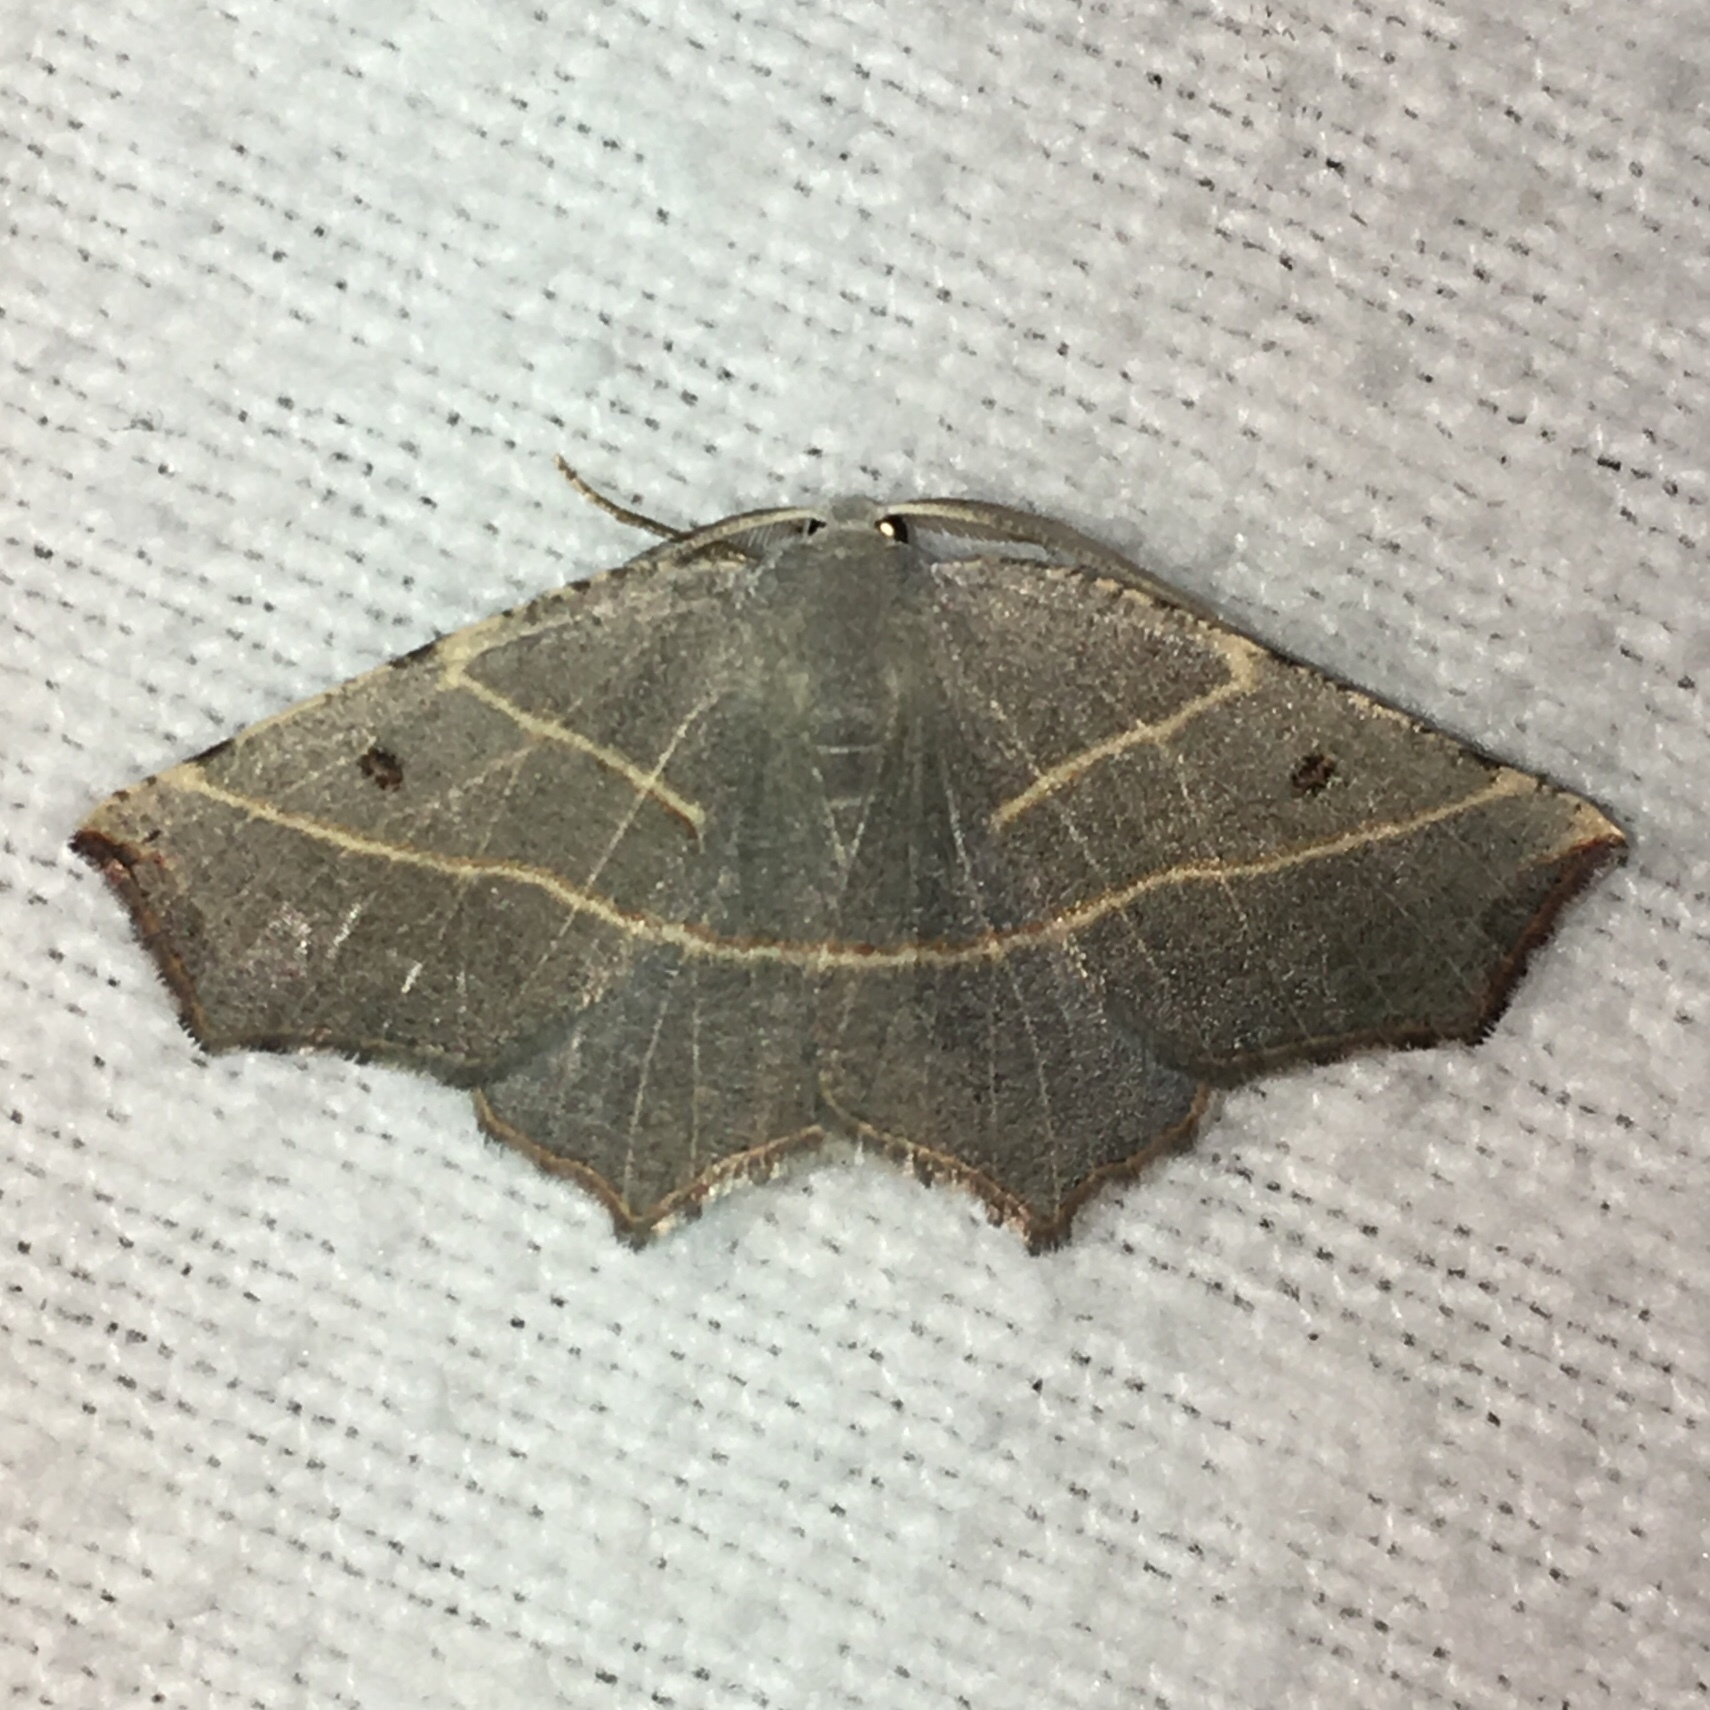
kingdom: Animalia
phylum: Arthropoda
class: Insecta
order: Lepidoptera
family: Geometridae
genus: Metanema
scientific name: Metanema inatomaria
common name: Pale metanema
